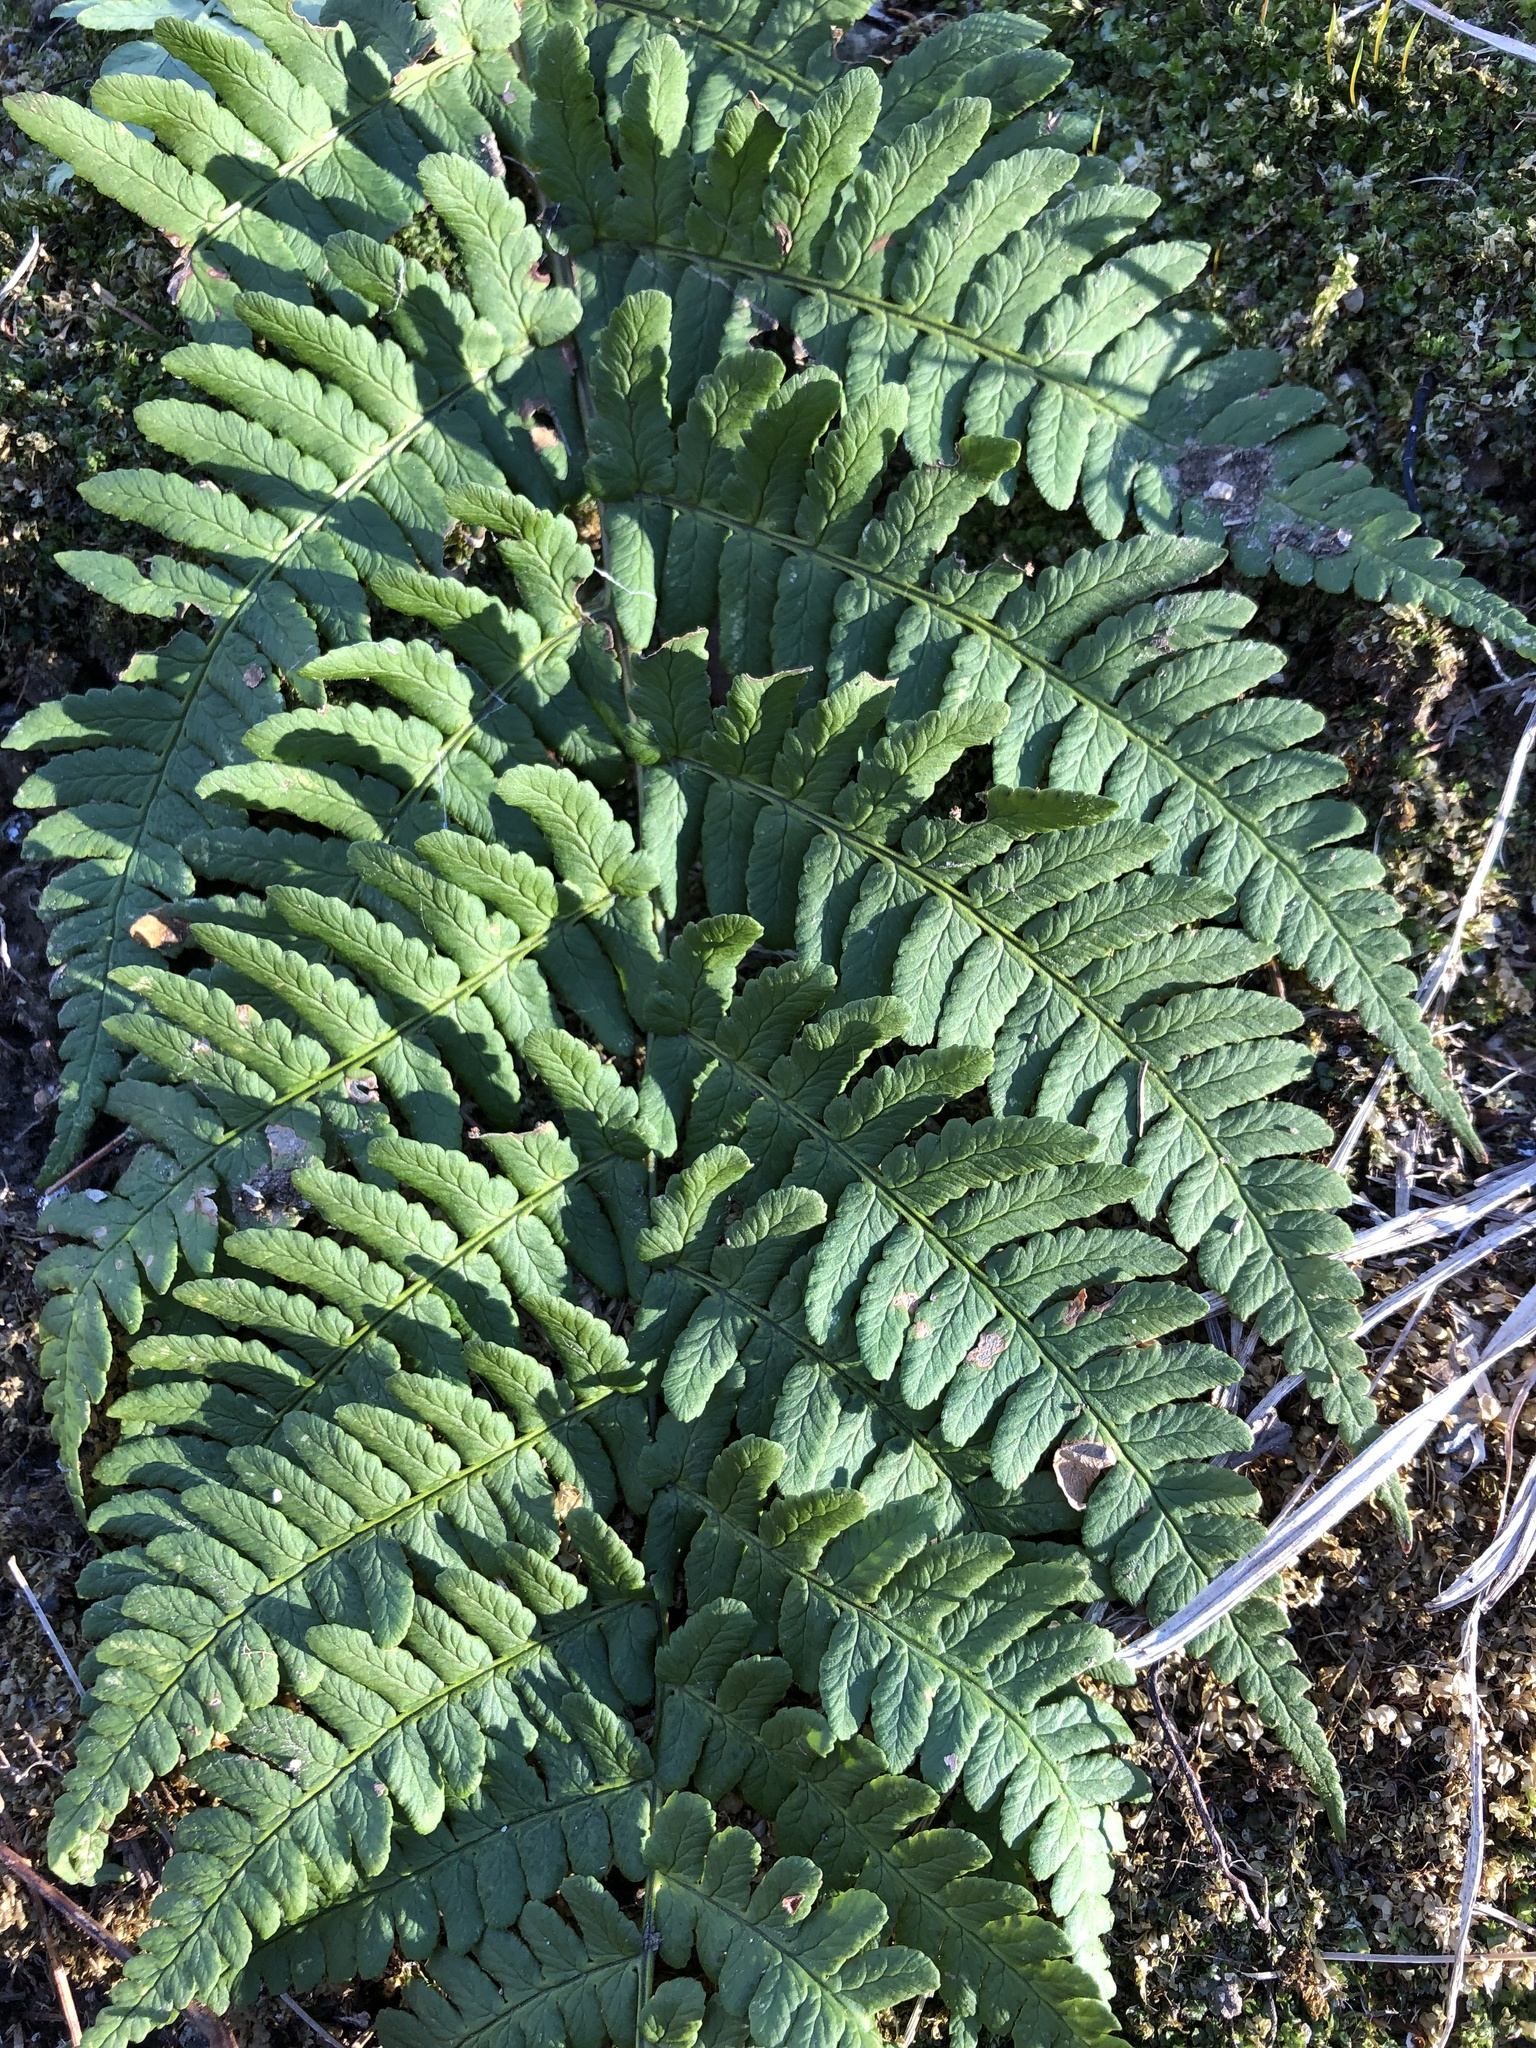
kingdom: Plantae
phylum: Tracheophyta
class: Polypodiopsida
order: Polypodiales
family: Dryopteridaceae
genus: Dryopteris
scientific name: Dryopteris marginalis
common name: Marginal wood fern
